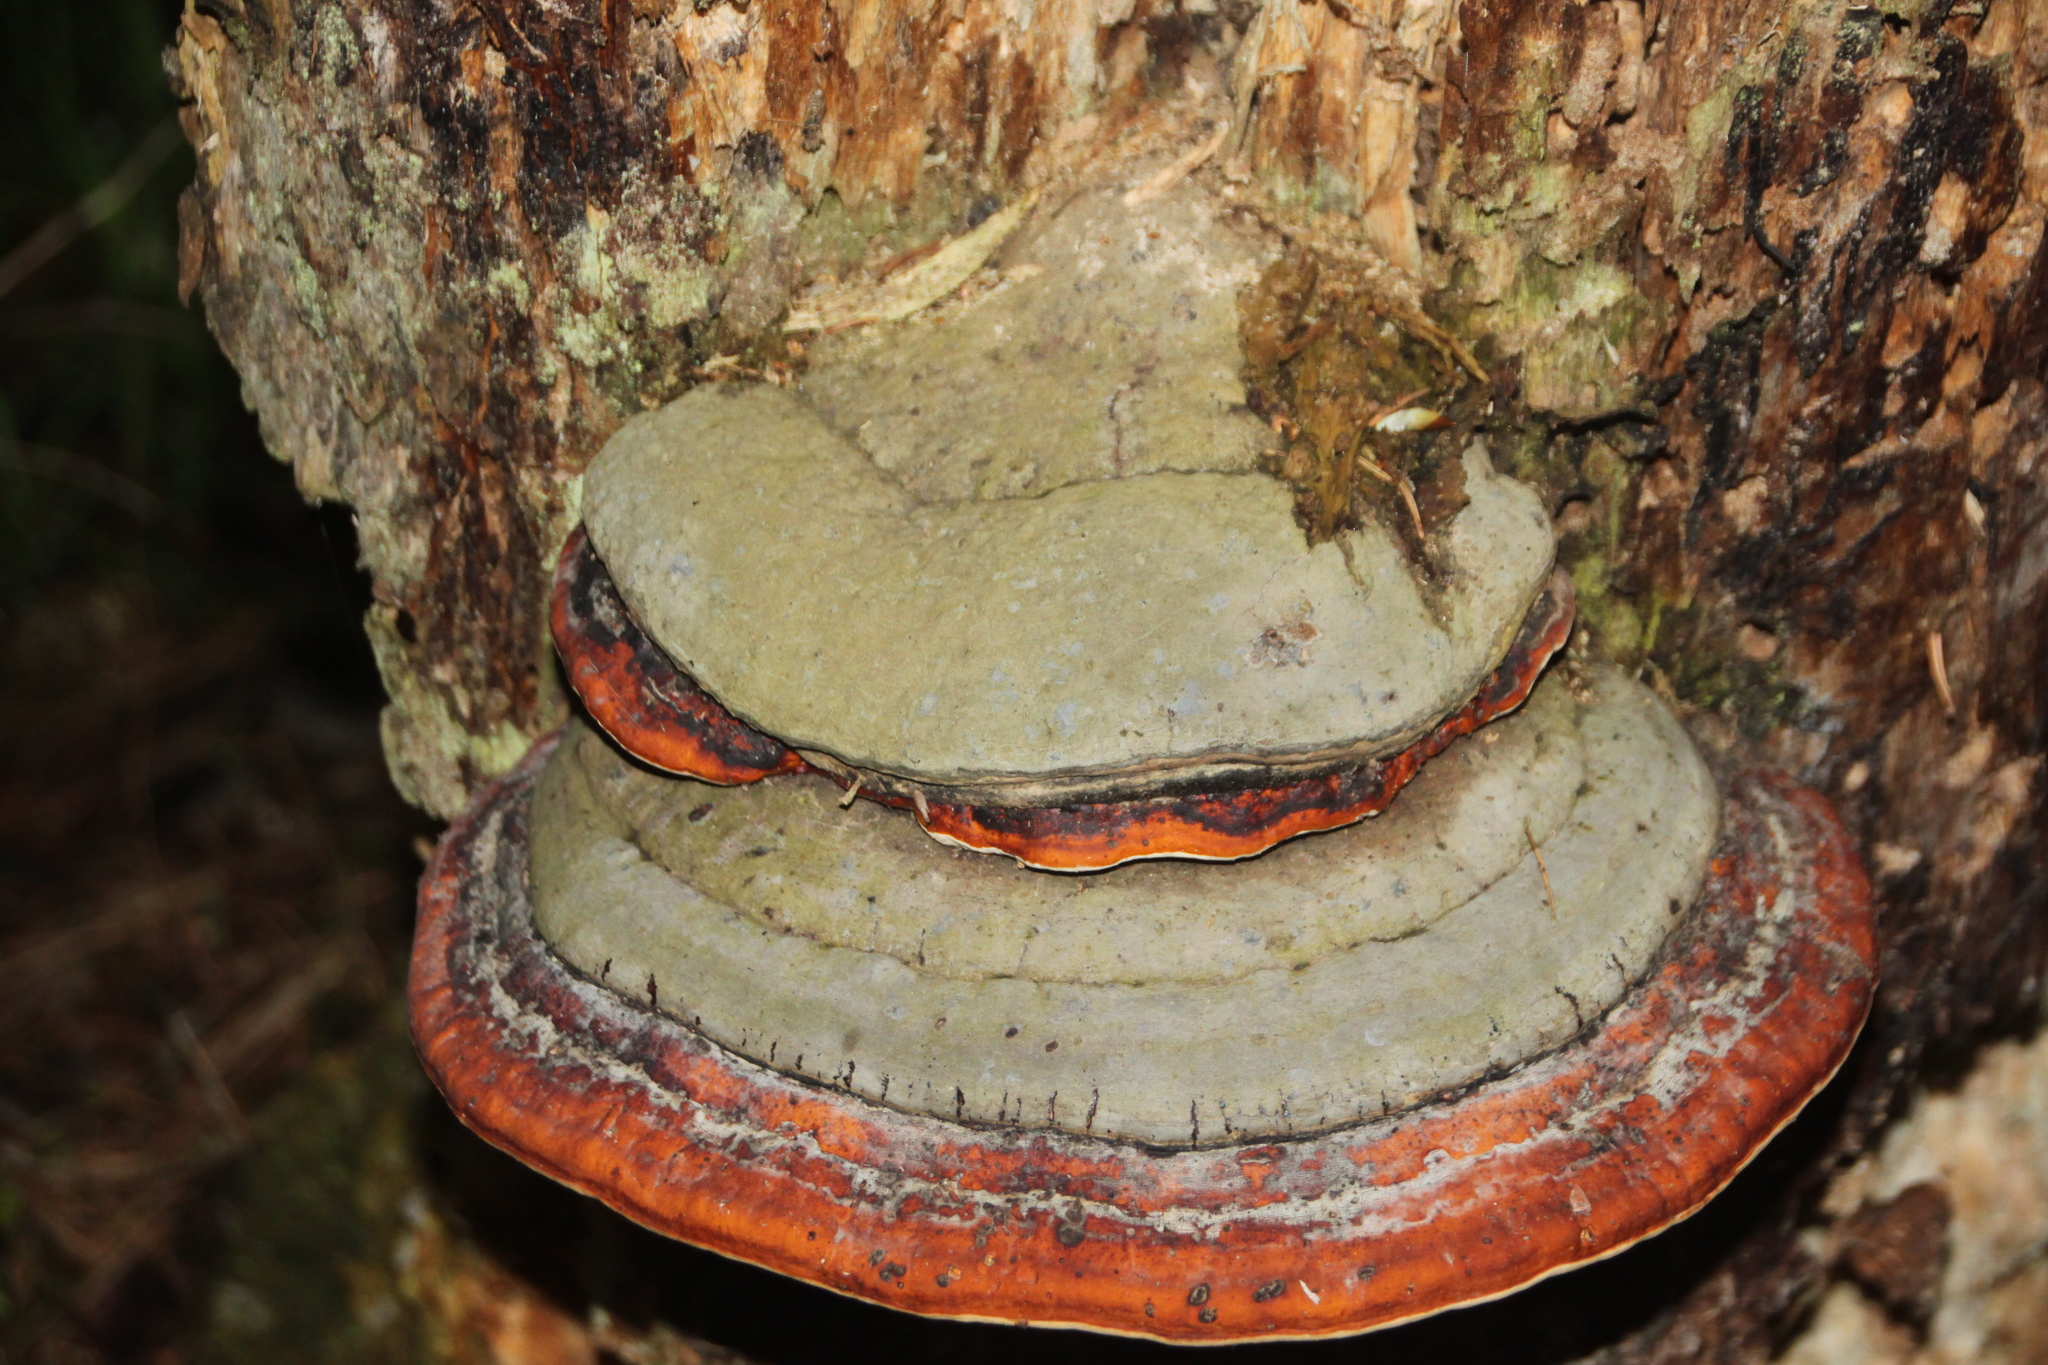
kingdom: Fungi
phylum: Basidiomycota
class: Agaricomycetes
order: Polyporales
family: Fomitopsidaceae
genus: Fomitopsis
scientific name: Fomitopsis pinicola
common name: Red-belted bracket
